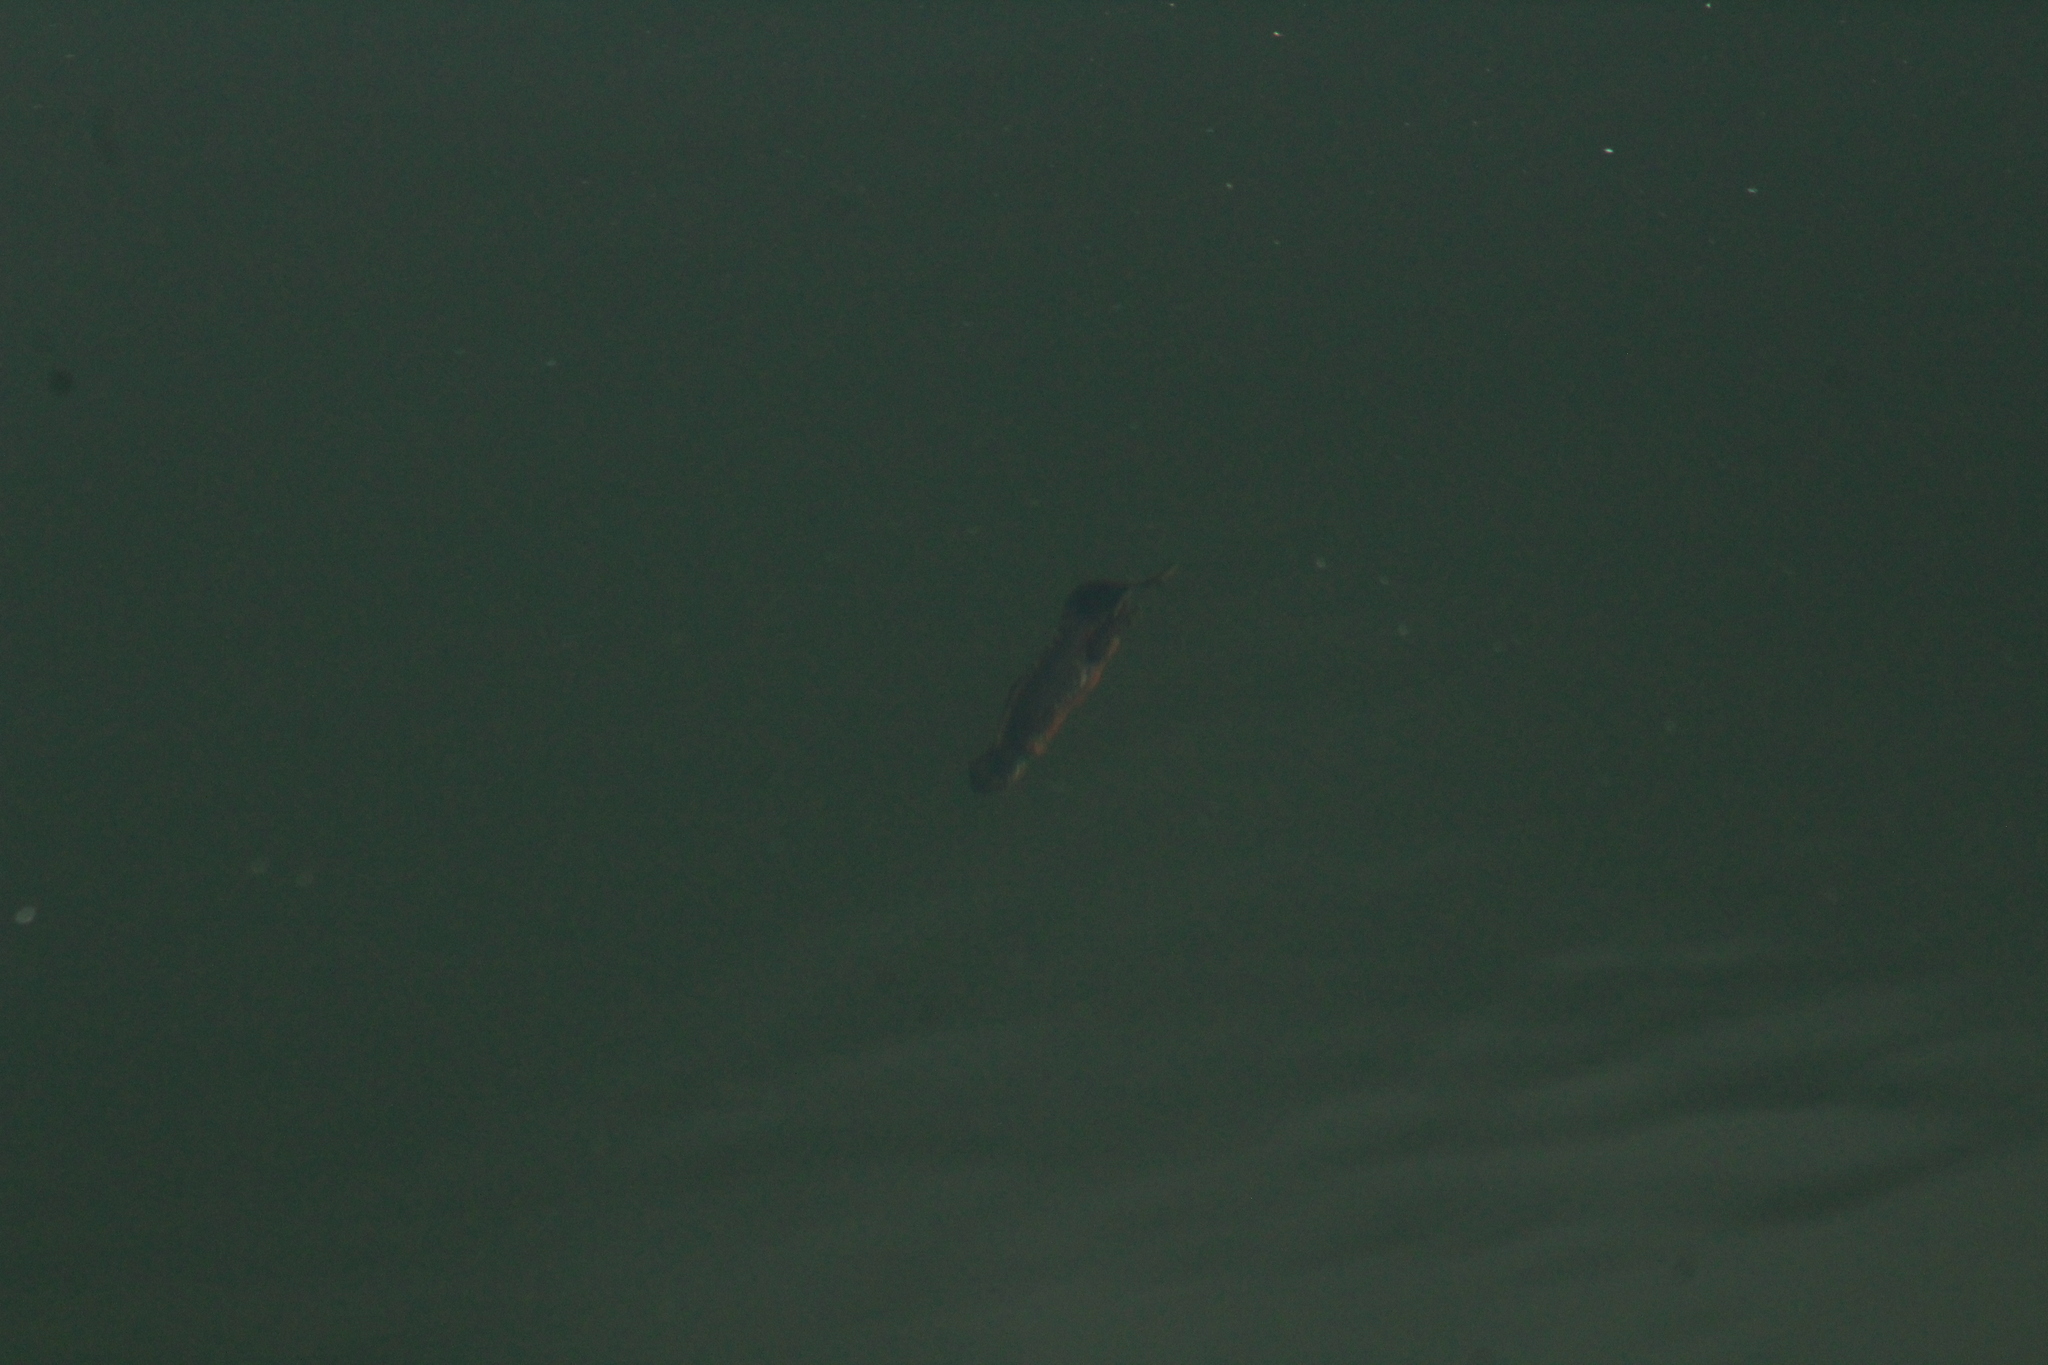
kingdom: Animalia
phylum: Chordata
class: Amphibia
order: Caudata
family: Salamandridae
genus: Ichthyosaura
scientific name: Ichthyosaura alpestris
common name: Alpine newt
